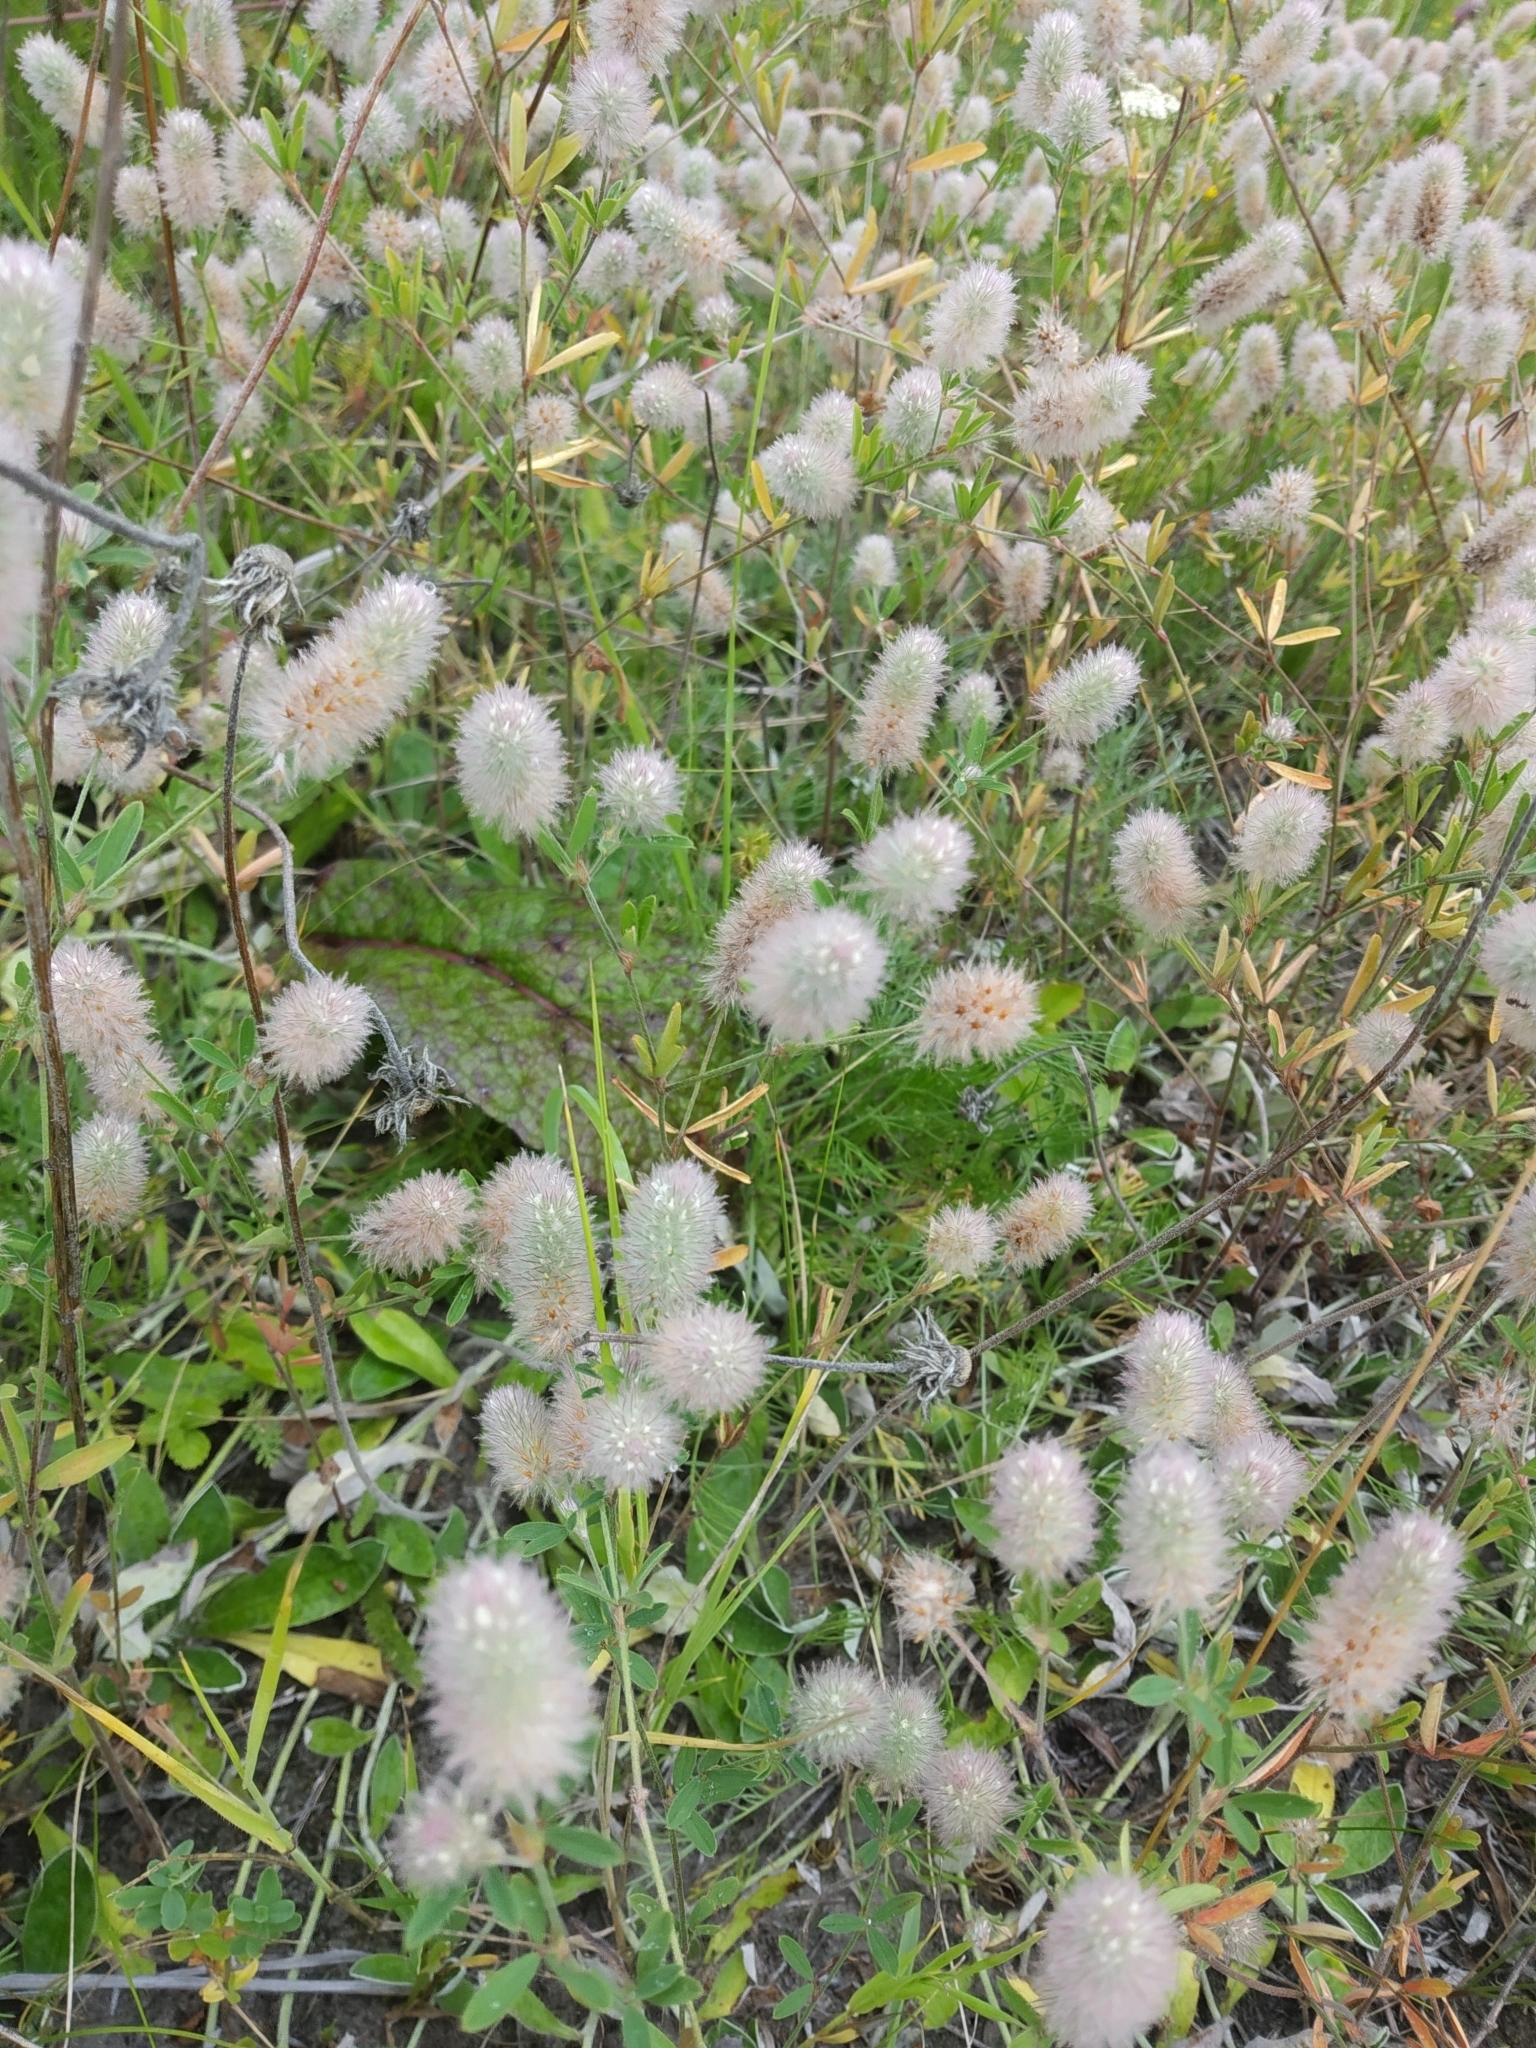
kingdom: Plantae
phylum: Tracheophyta
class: Magnoliopsida
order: Fabales
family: Fabaceae
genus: Trifolium
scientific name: Trifolium arvense
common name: Hare's-foot clover
